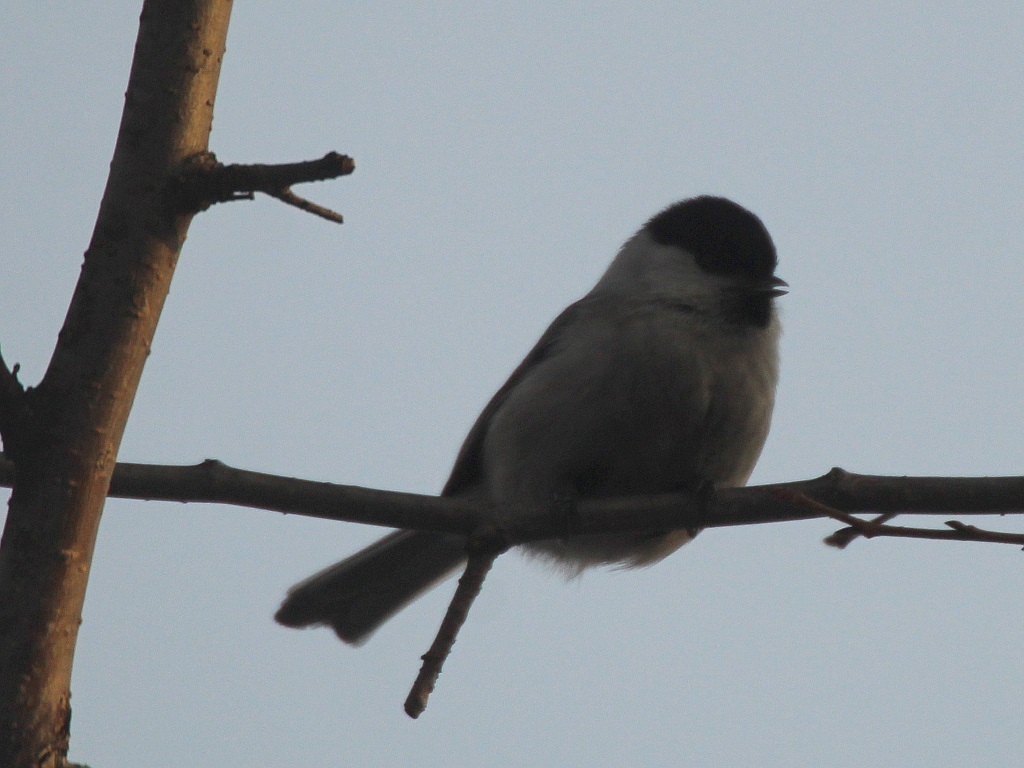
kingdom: Animalia
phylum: Chordata
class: Aves
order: Passeriformes
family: Paridae
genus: Poecile
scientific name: Poecile montanus
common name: Willow tit
